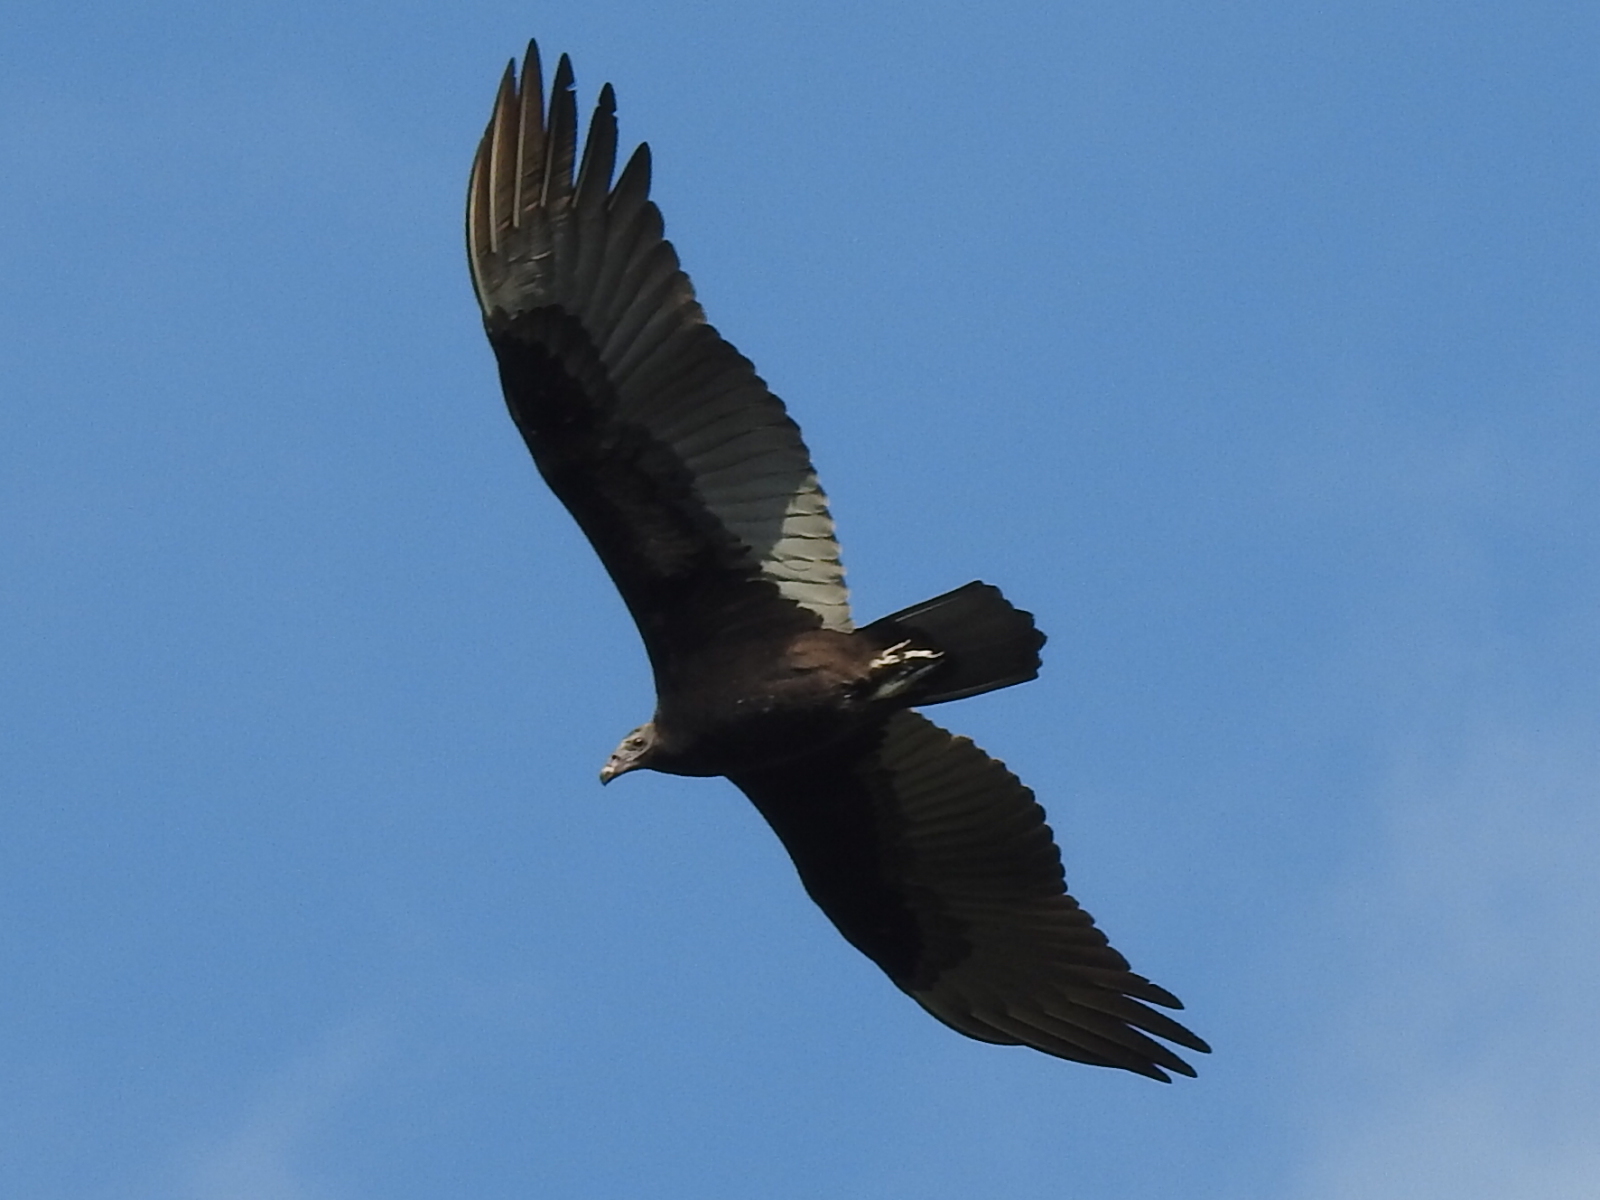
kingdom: Animalia
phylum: Chordata
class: Aves
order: Accipitriformes
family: Cathartidae
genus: Cathartes
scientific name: Cathartes aura
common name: Turkey vulture
